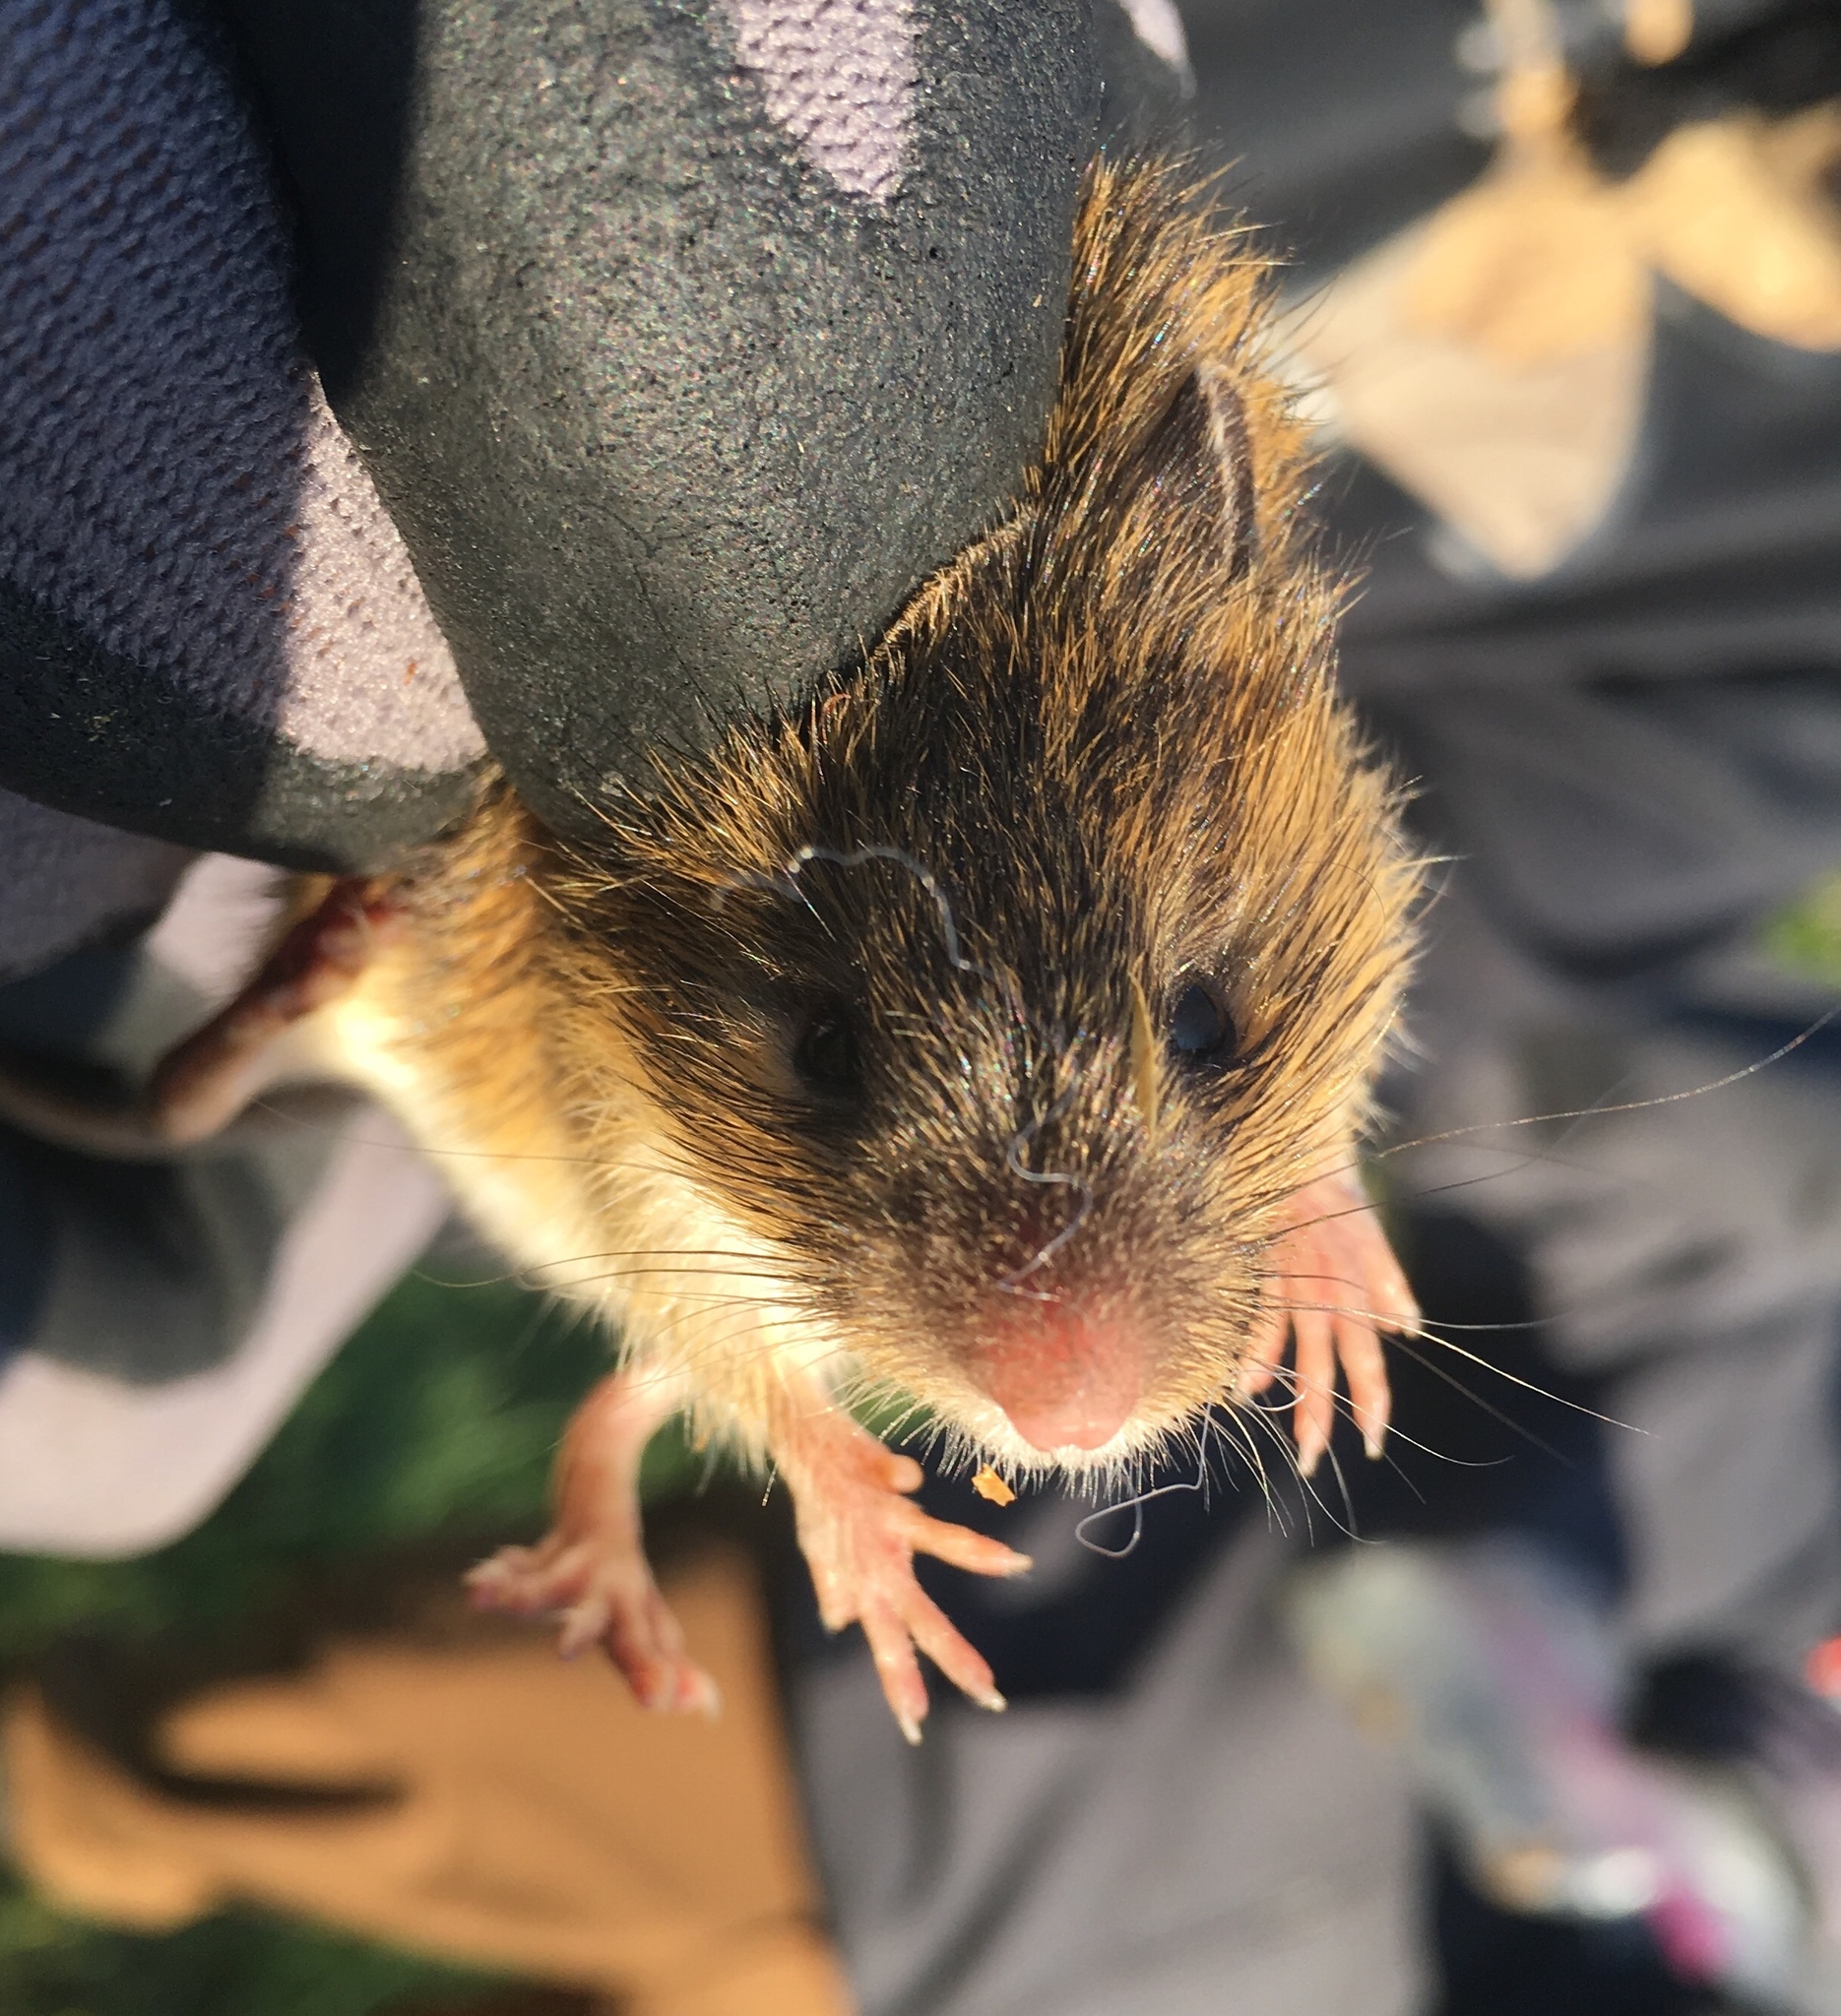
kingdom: Animalia
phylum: Chordata
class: Mammalia
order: Rodentia
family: Dipodidae
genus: Zapus
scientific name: Zapus hudsonius
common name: Meadow jumping mouse
